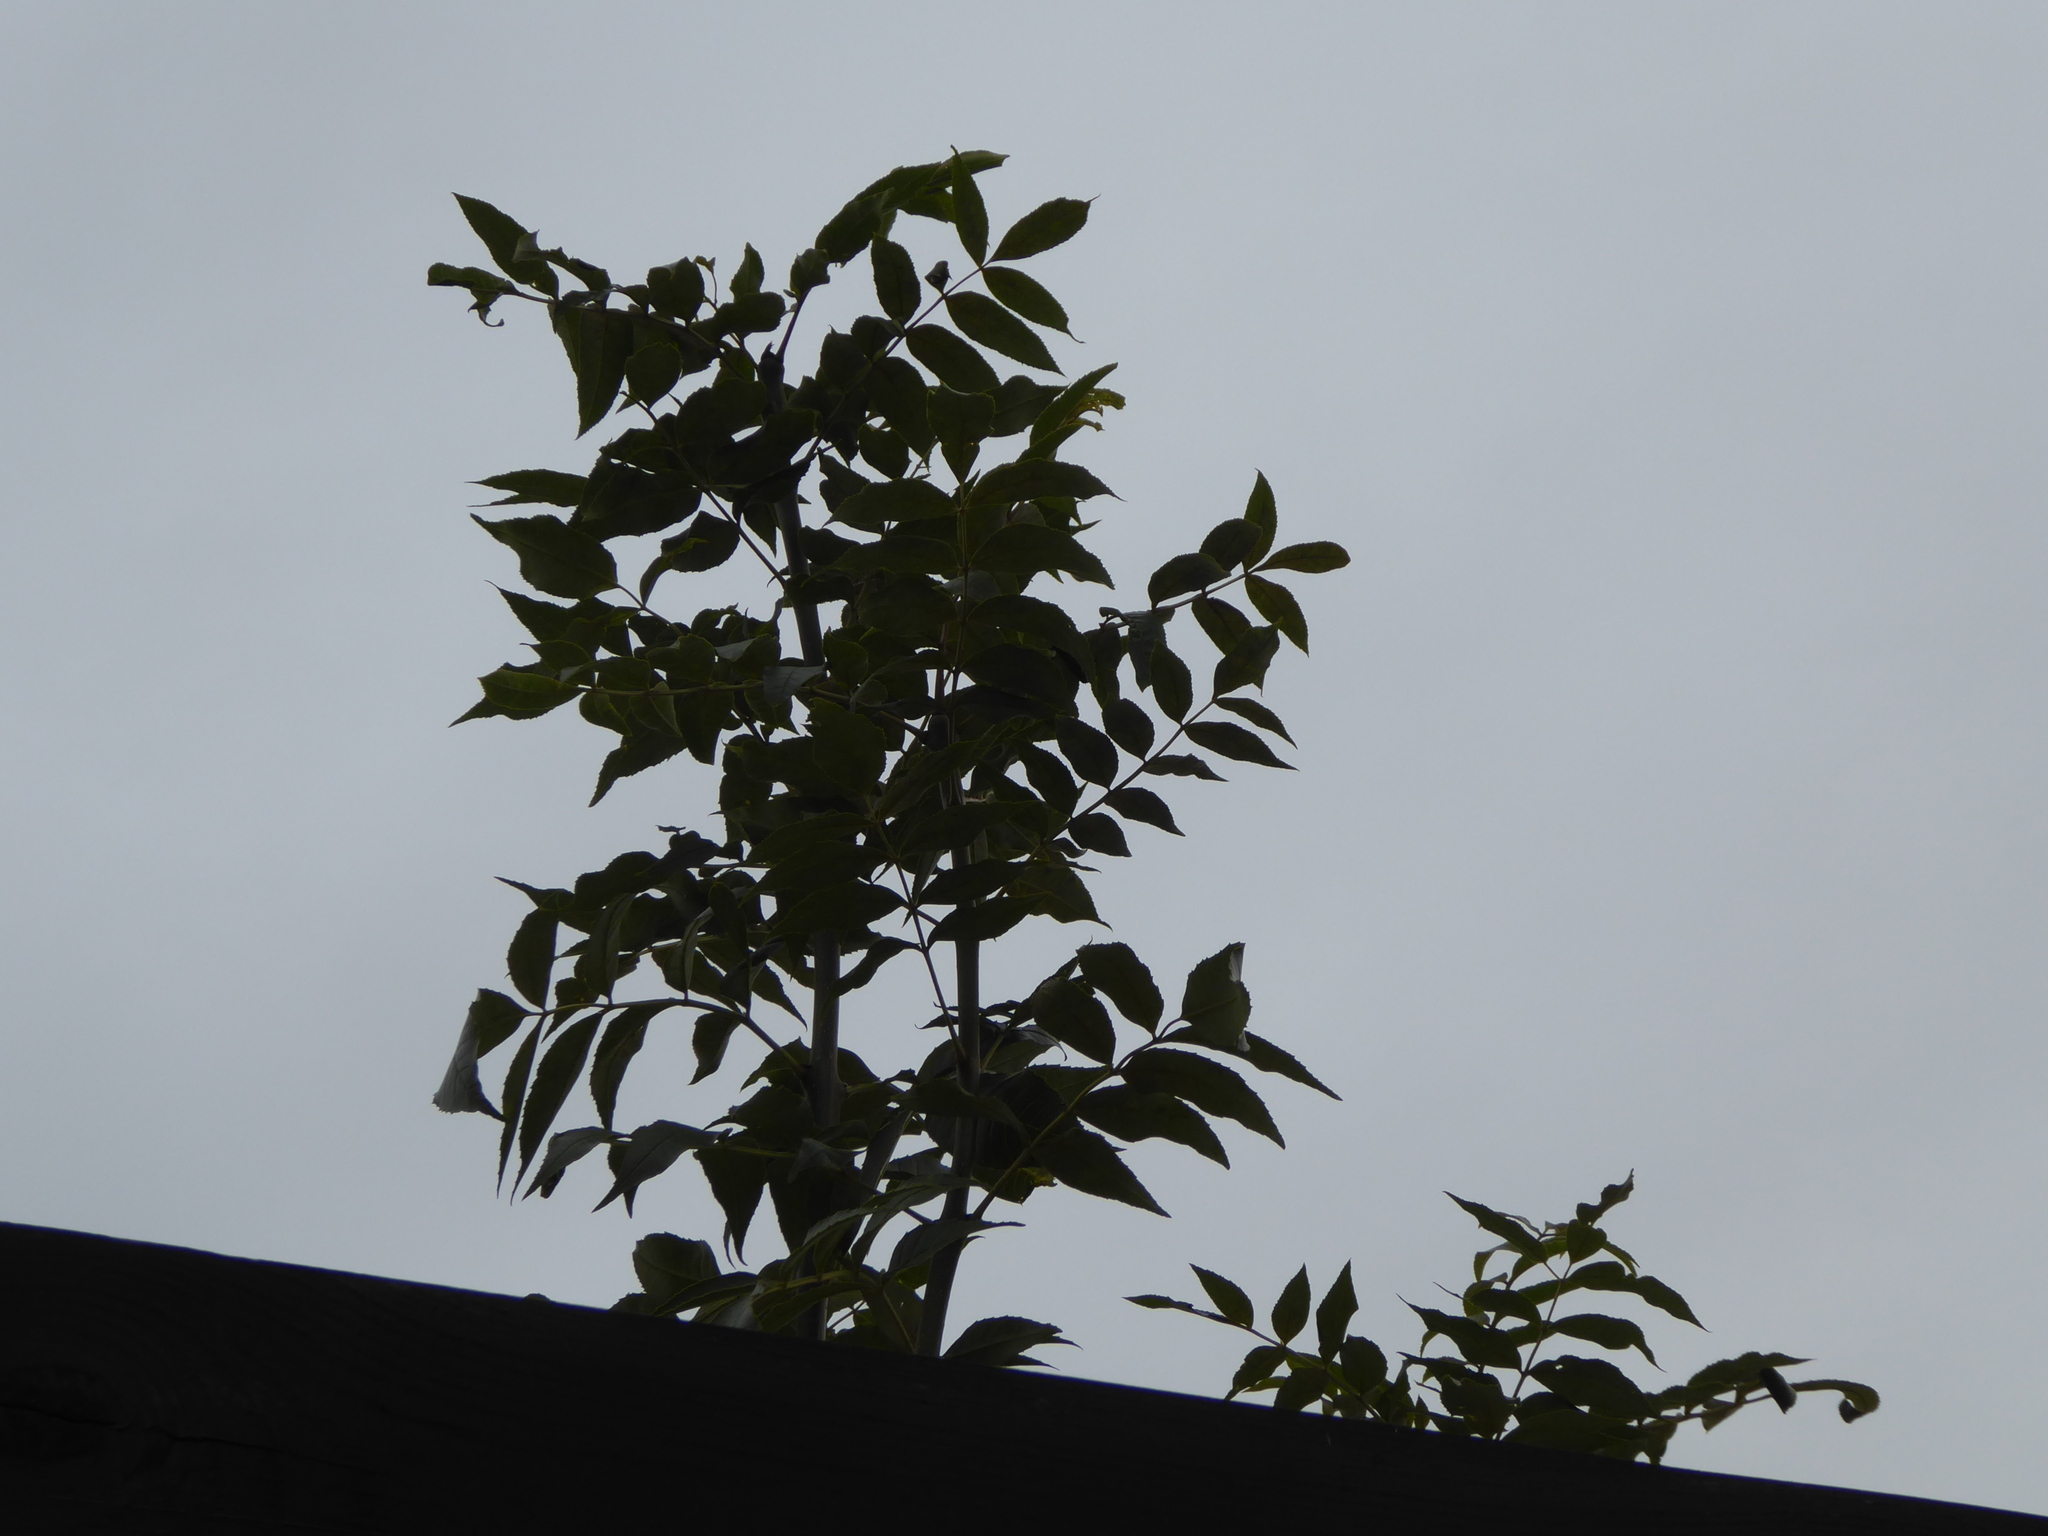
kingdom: Plantae
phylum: Tracheophyta
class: Magnoliopsida
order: Lamiales
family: Oleaceae
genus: Fraxinus
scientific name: Fraxinus excelsior
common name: European ash
